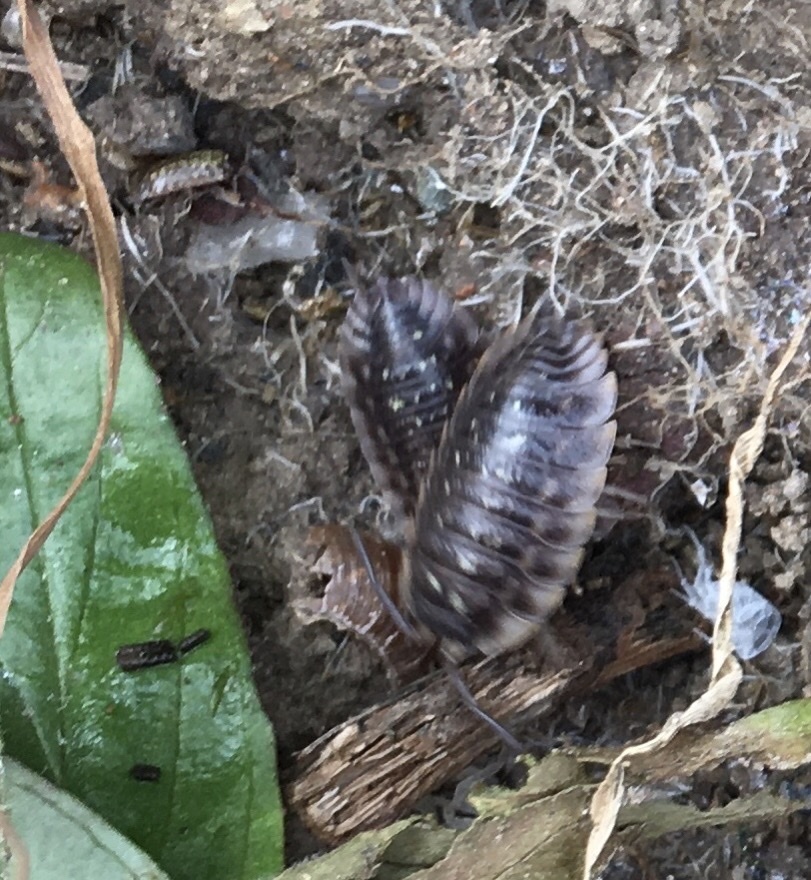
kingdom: Animalia
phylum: Arthropoda
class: Malacostraca
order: Isopoda
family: Philosciidae
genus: Philoscia
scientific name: Philoscia muscorum
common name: Common striped woodlouse
